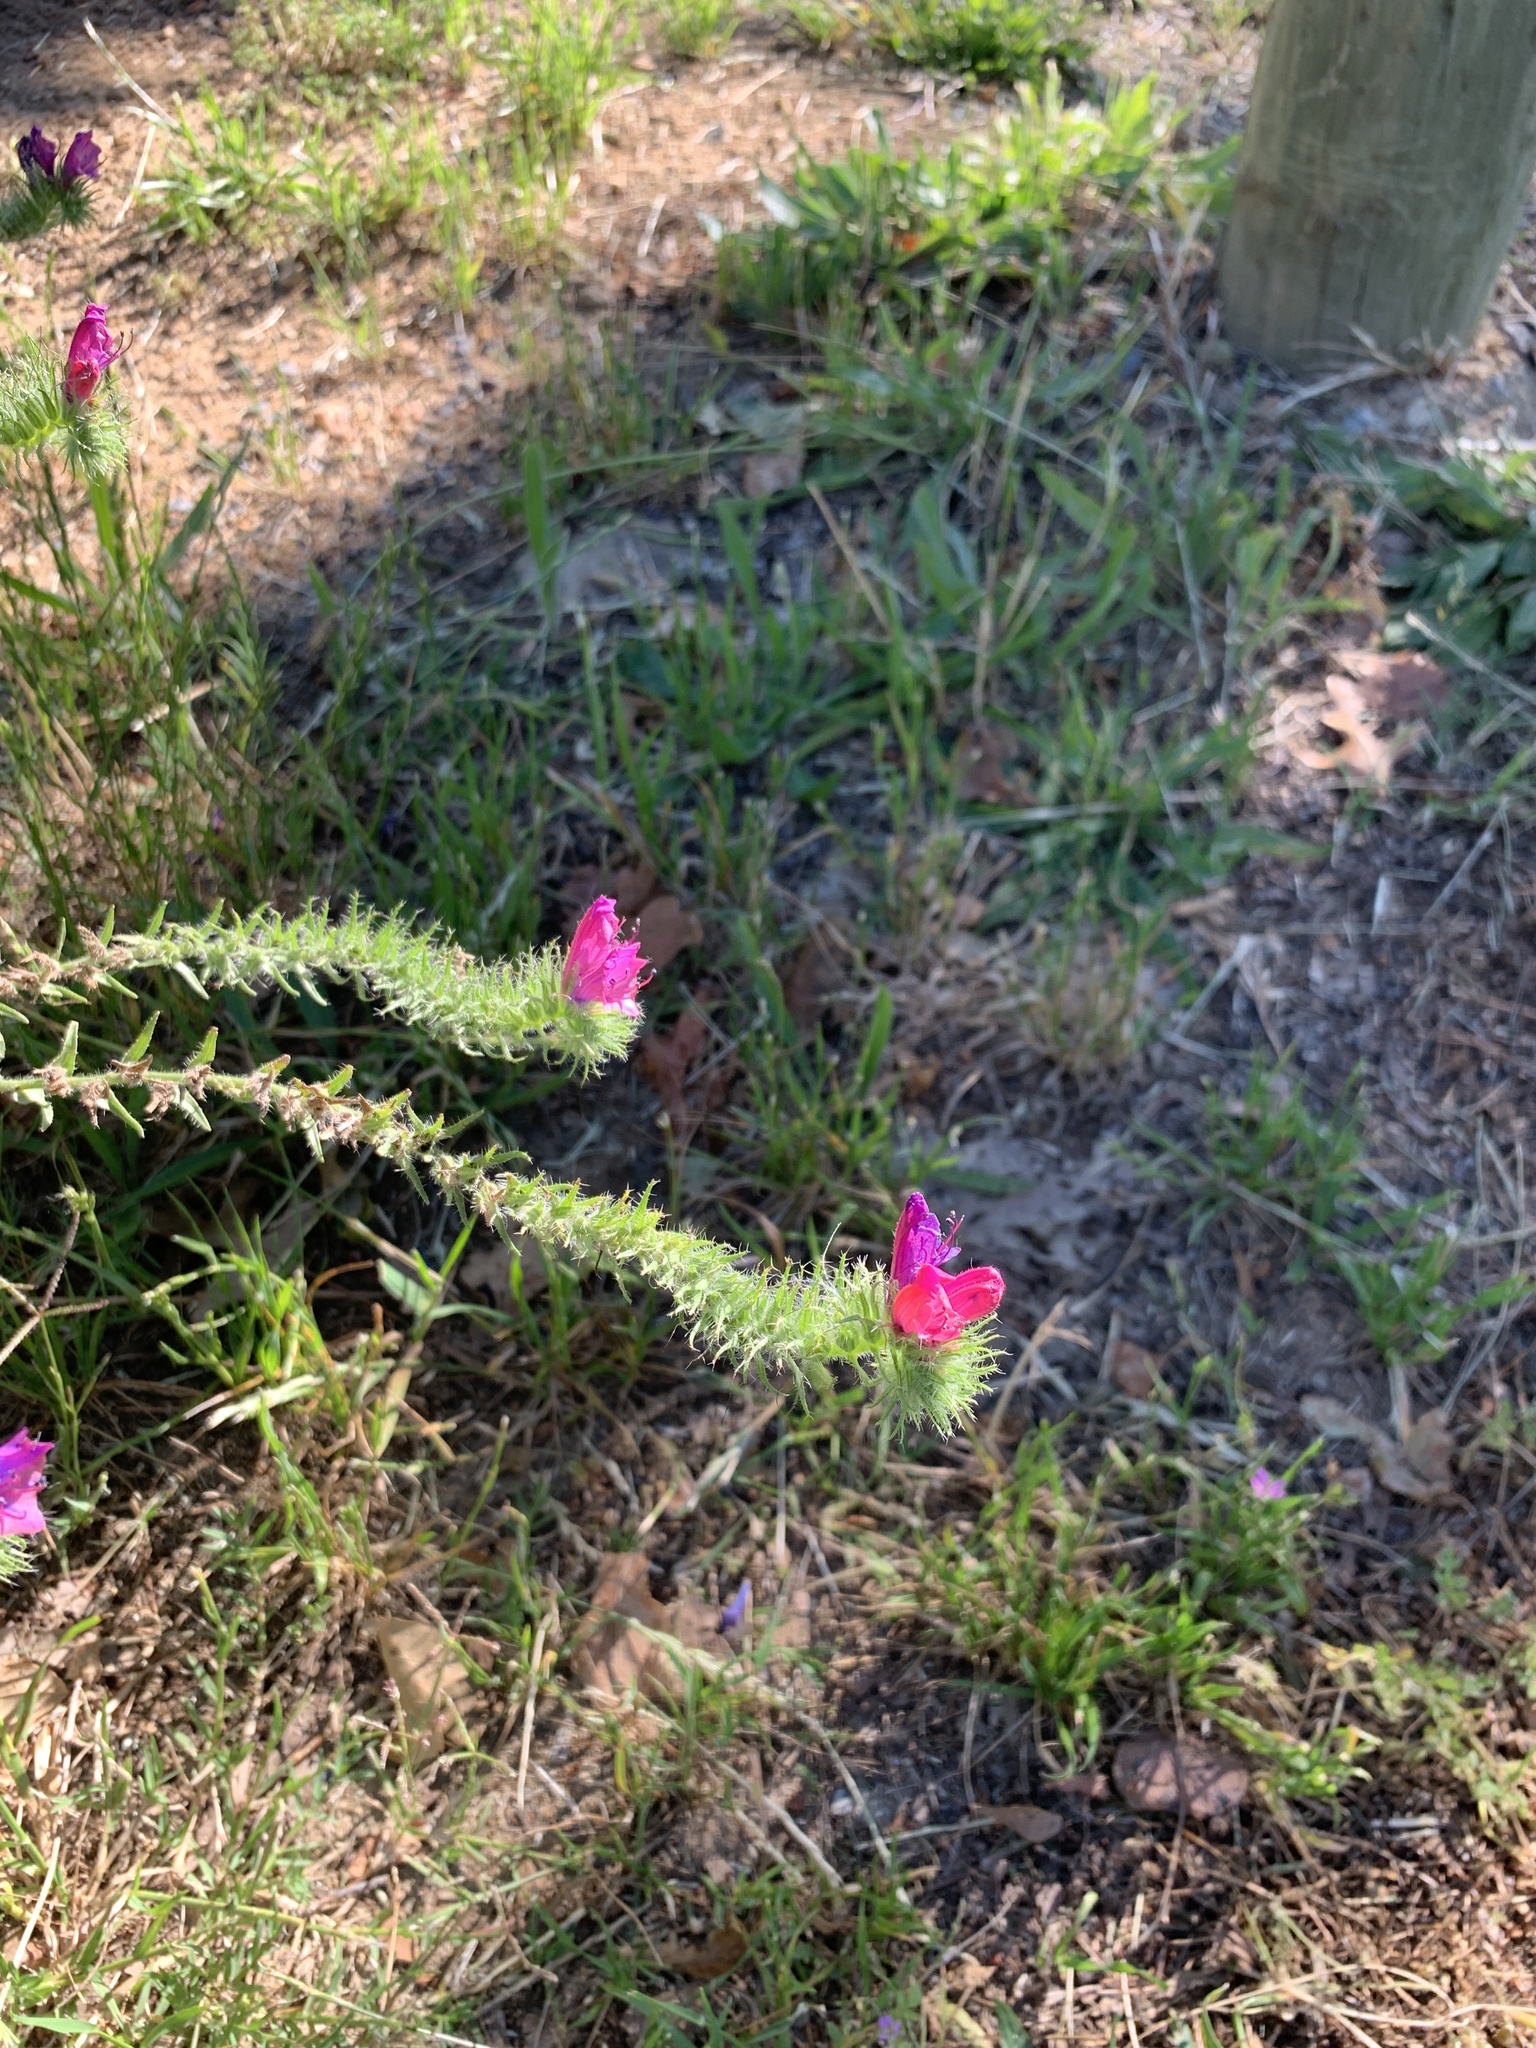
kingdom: Plantae
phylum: Tracheophyta
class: Magnoliopsida
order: Boraginales
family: Boraginaceae
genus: Echium
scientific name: Echium plantagineum
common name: Purple viper's-bugloss
